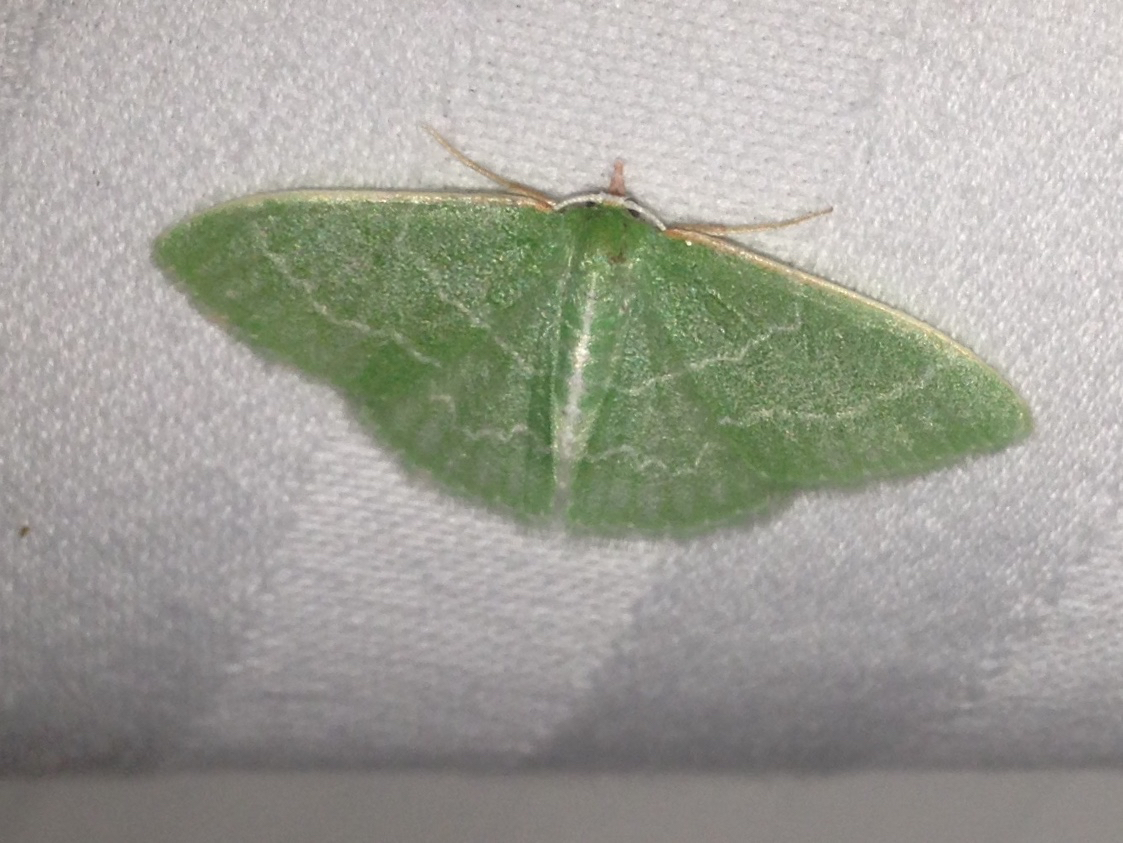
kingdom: Animalia
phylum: Arthropoda
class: Insecta
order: Lepidoptera
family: Geometridae
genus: Synchlora
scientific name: Synchlora aerata
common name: Wavy-lined emerald
